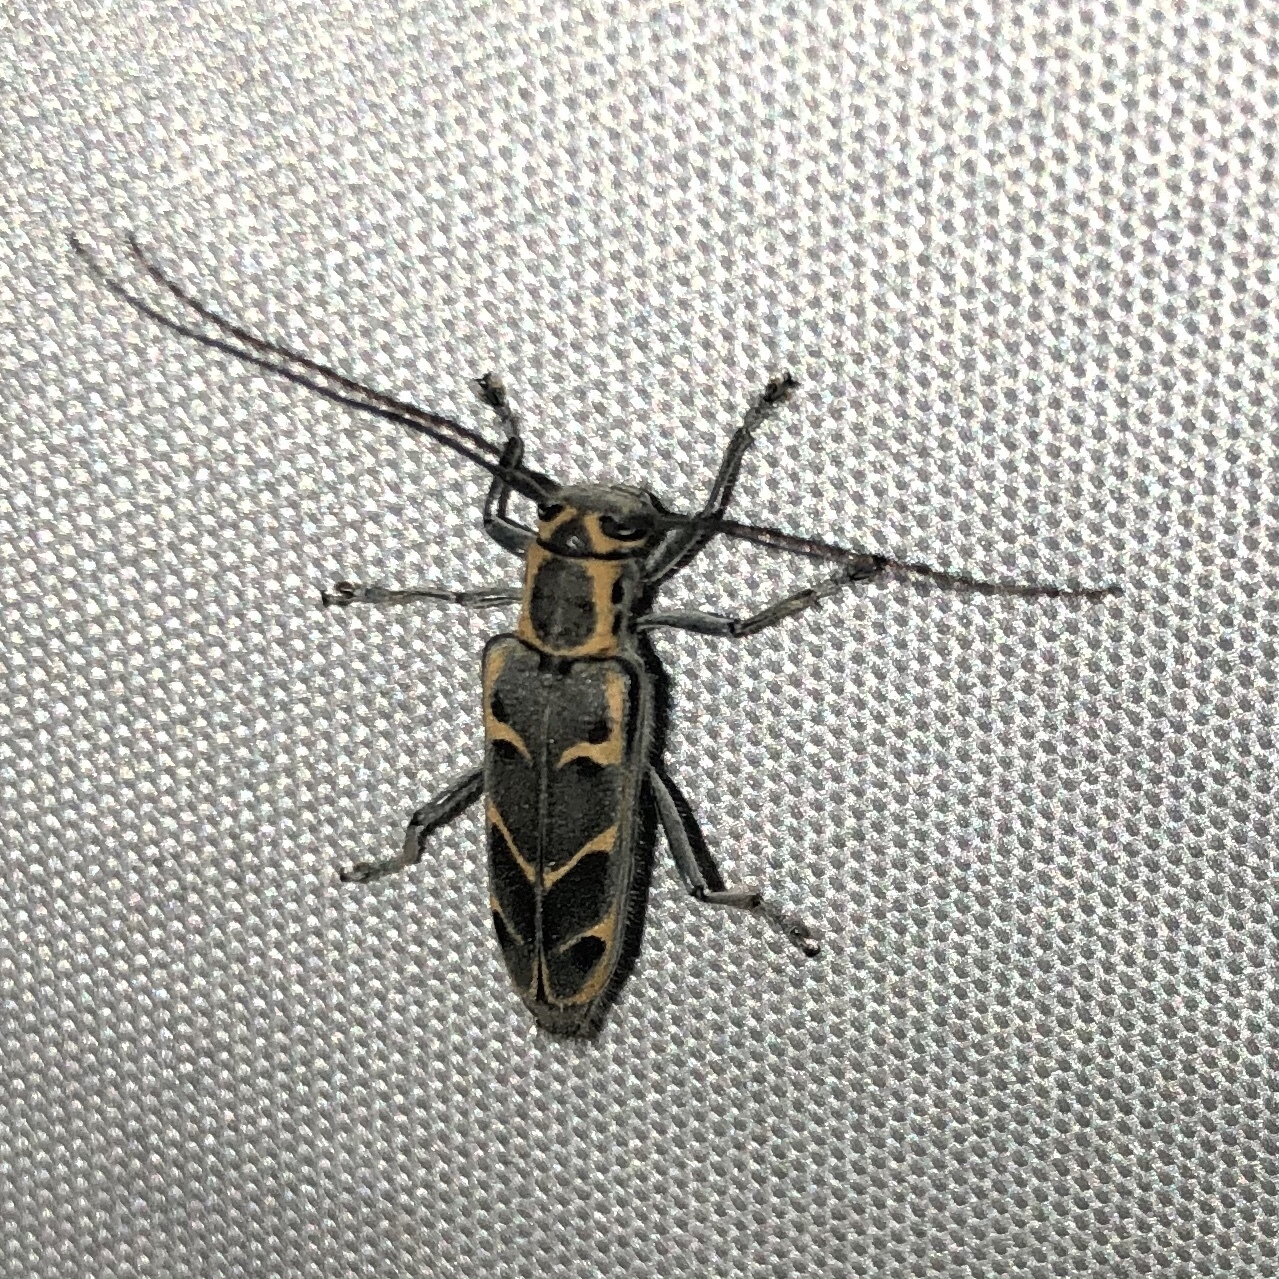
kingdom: Animalia
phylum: Arthropoda
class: Insecta
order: Coleoptera
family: Cerambycidae
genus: Saperda
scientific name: Saperda tridentata
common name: Elm borer
